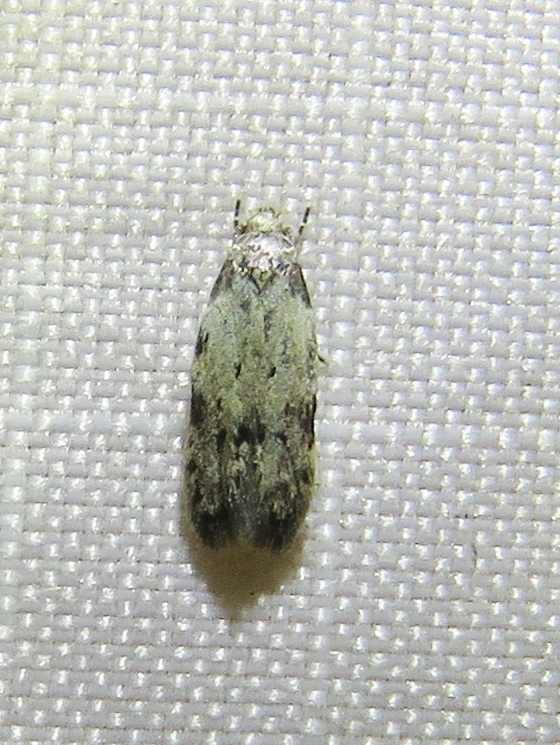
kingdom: Animalia
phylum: Arthropoda
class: Insecta
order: Lepidoptera
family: Autostichidae
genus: Taygete
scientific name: Taygete attributella
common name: Triangle-marked twirler moth
